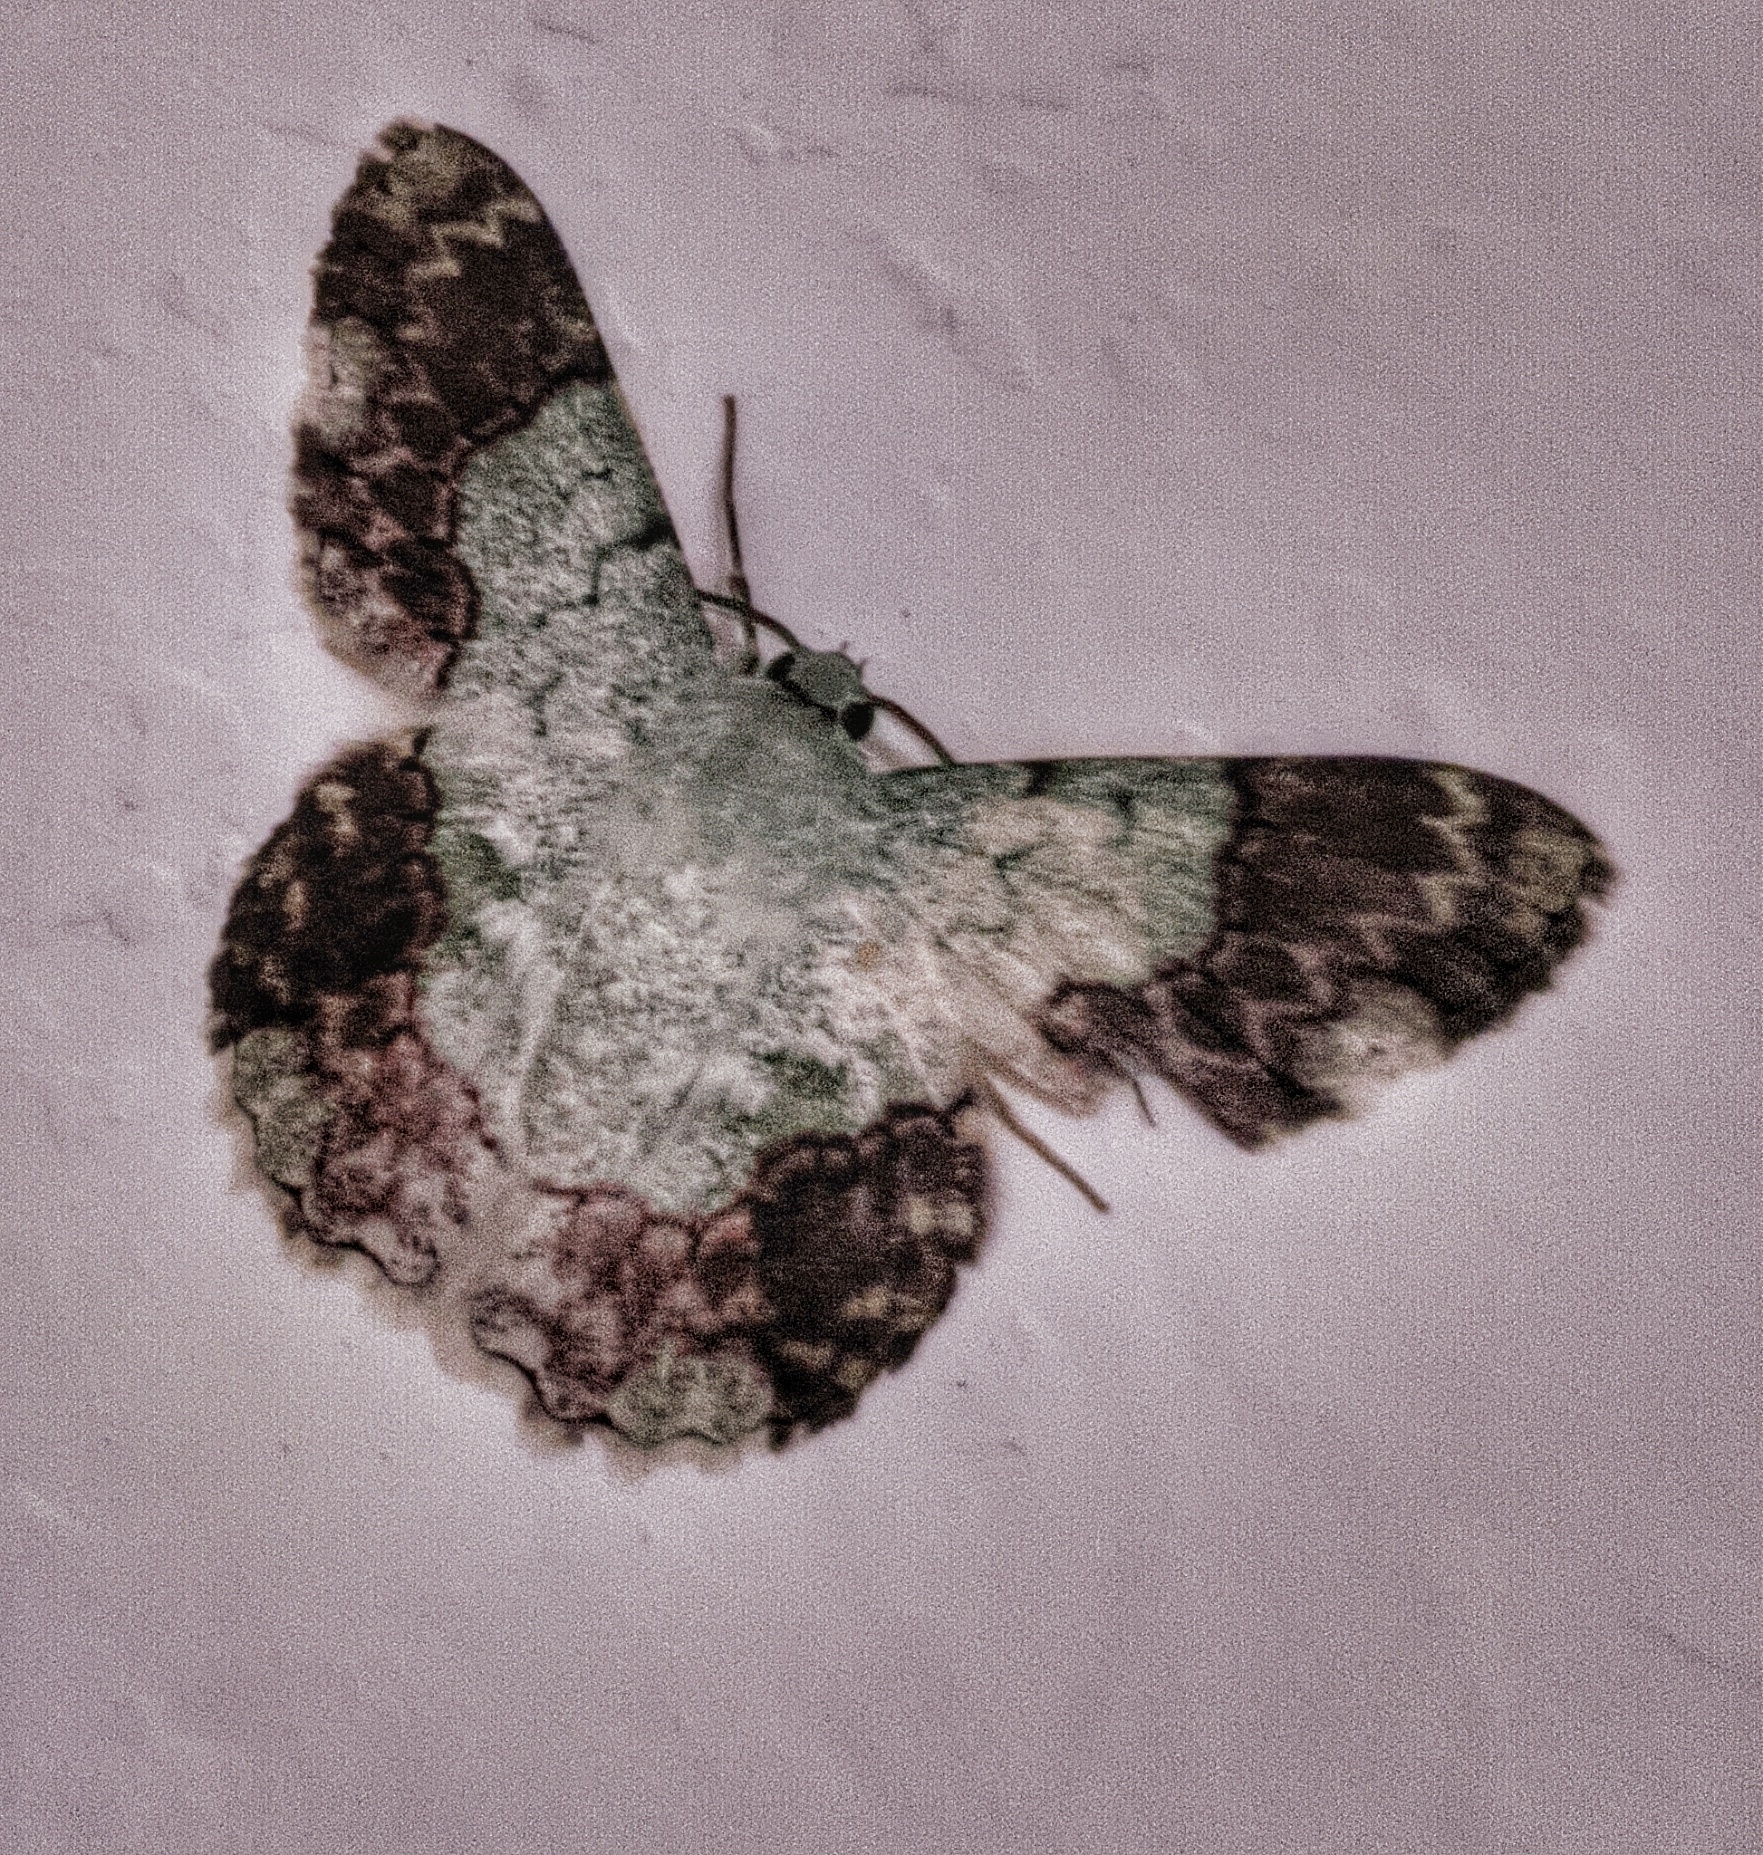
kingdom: Animalia
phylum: Arthropoda
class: Insecta
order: Lepidoptera
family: Geometridae
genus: Pingasa
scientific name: Pingasa ruginaria
